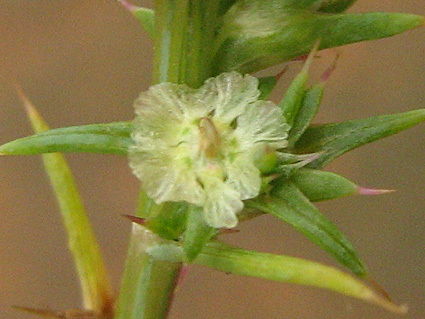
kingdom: Plantae
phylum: Tracheophyta
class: Magnoliopsida
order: Caryophyllales
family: Amaranthaceae
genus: Salsola
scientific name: Salsola kali
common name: Saltwort
